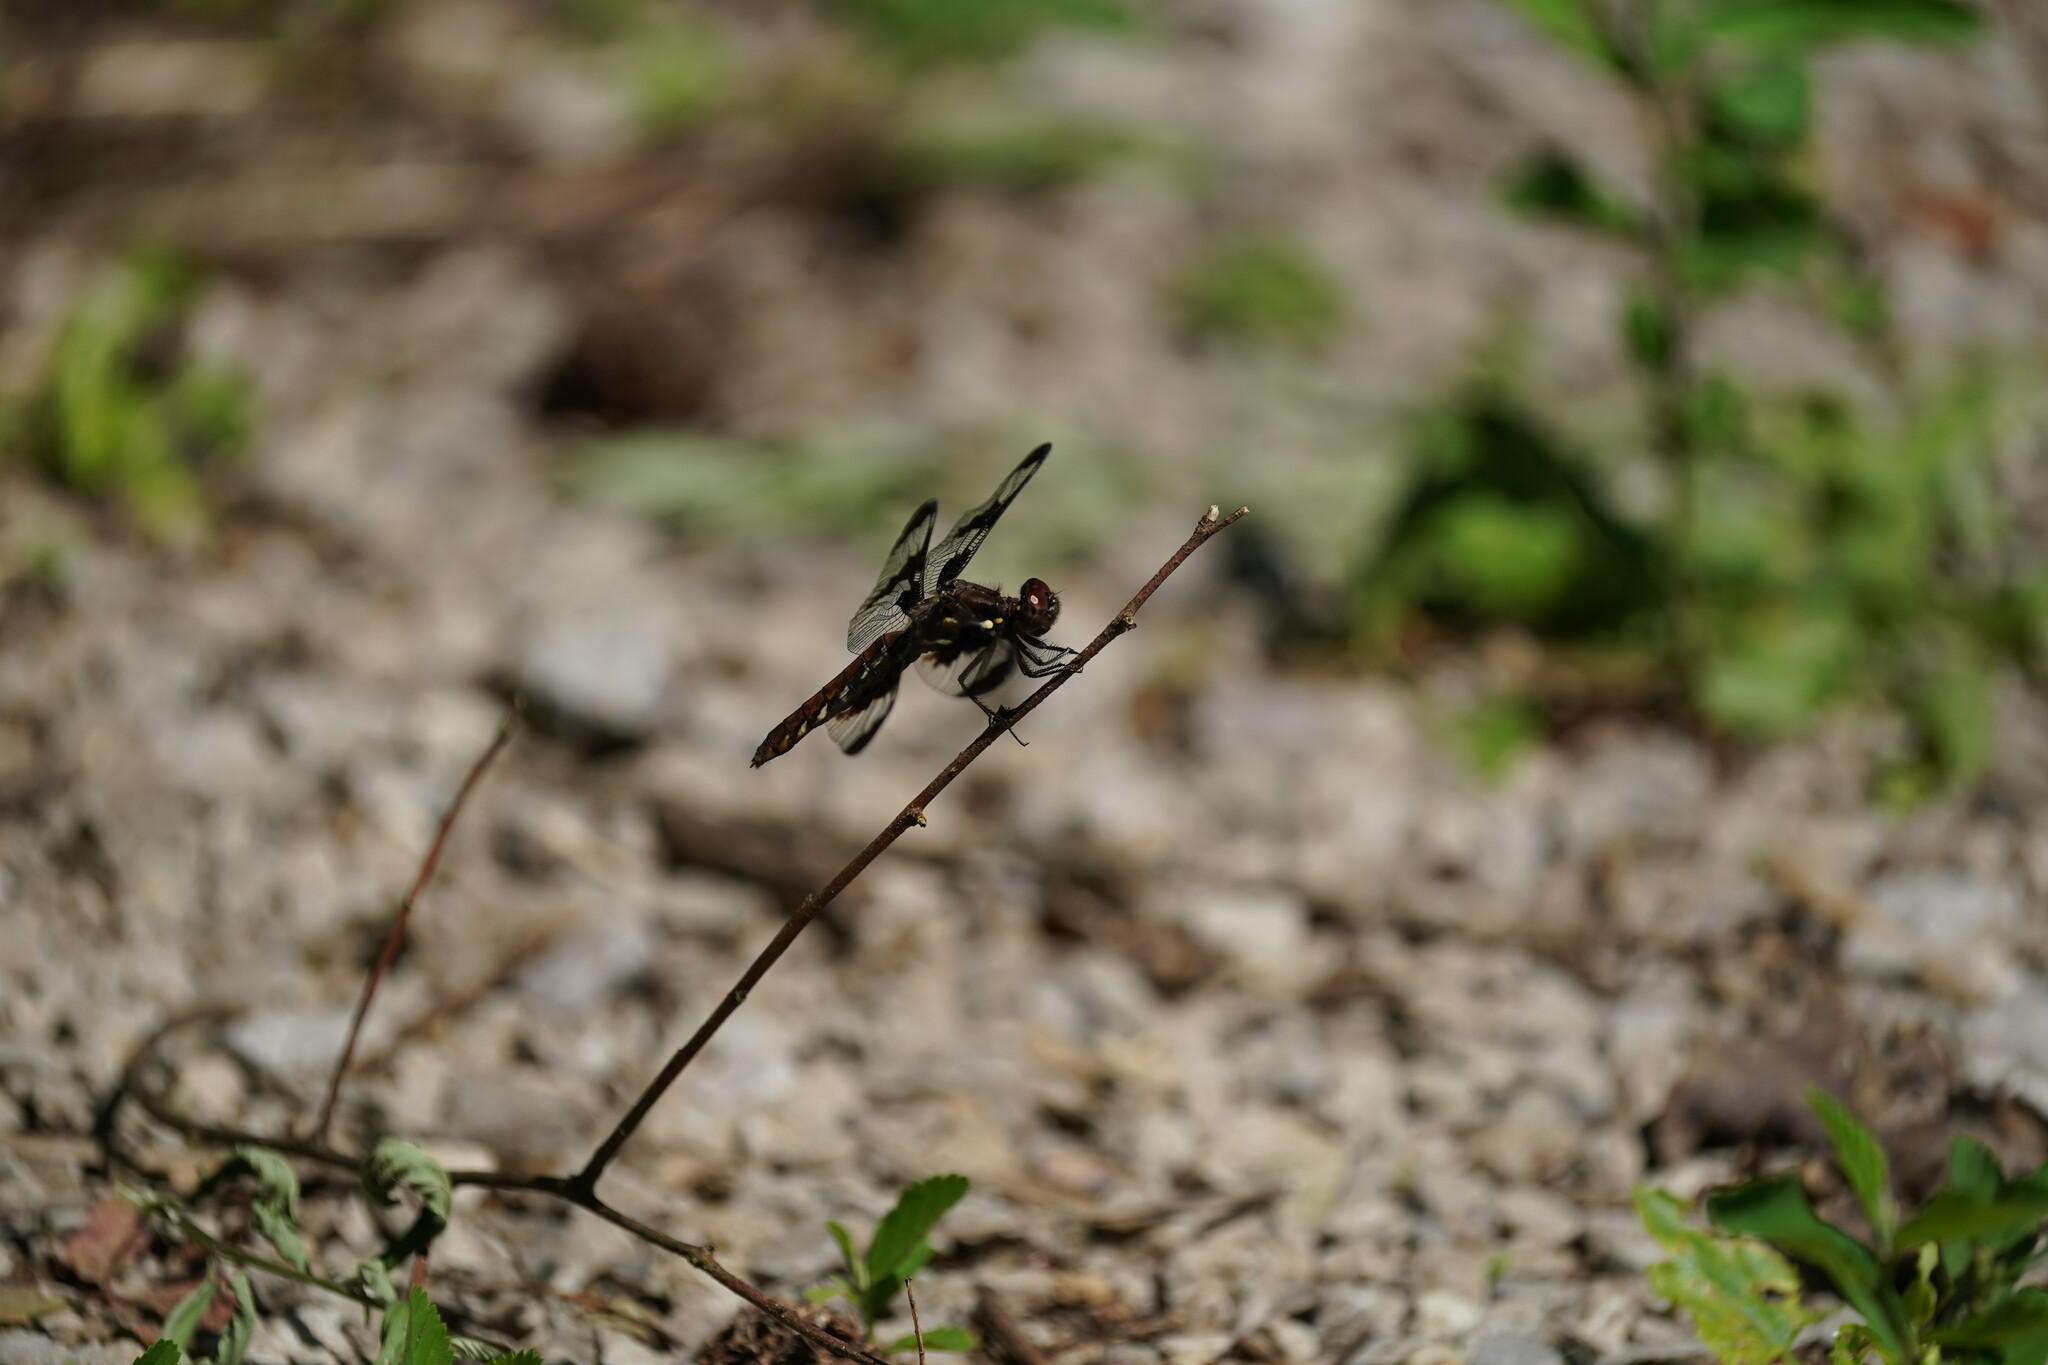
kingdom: Animalia
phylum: Arthropoda
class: Insecta
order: Odonata
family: Libellulidae
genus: Plathemis
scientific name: Plathemis lydia
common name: Common whitetail
